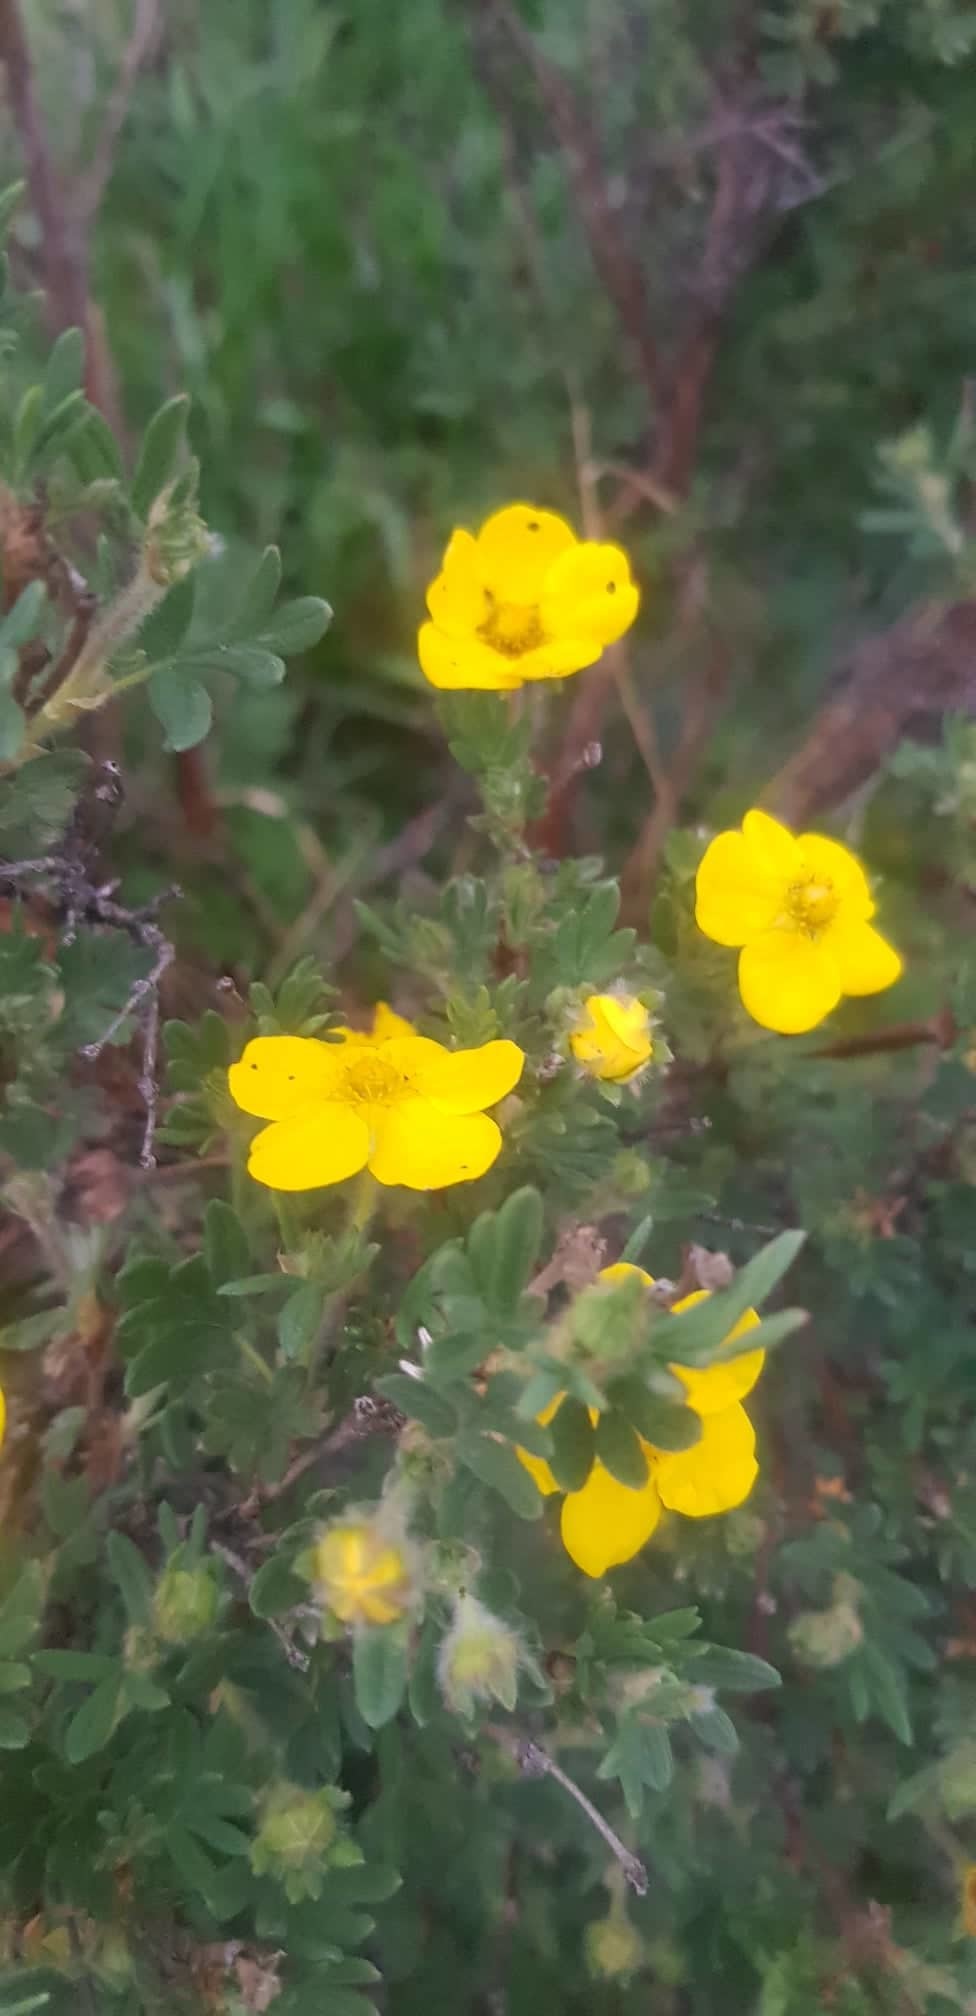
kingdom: Plantae
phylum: Tracheophyta
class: Magnoliopsida
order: Rosales
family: Rosaceae
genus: Dasiphora
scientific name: Dasiphora fruticosa
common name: Shrubby cinquefoil
